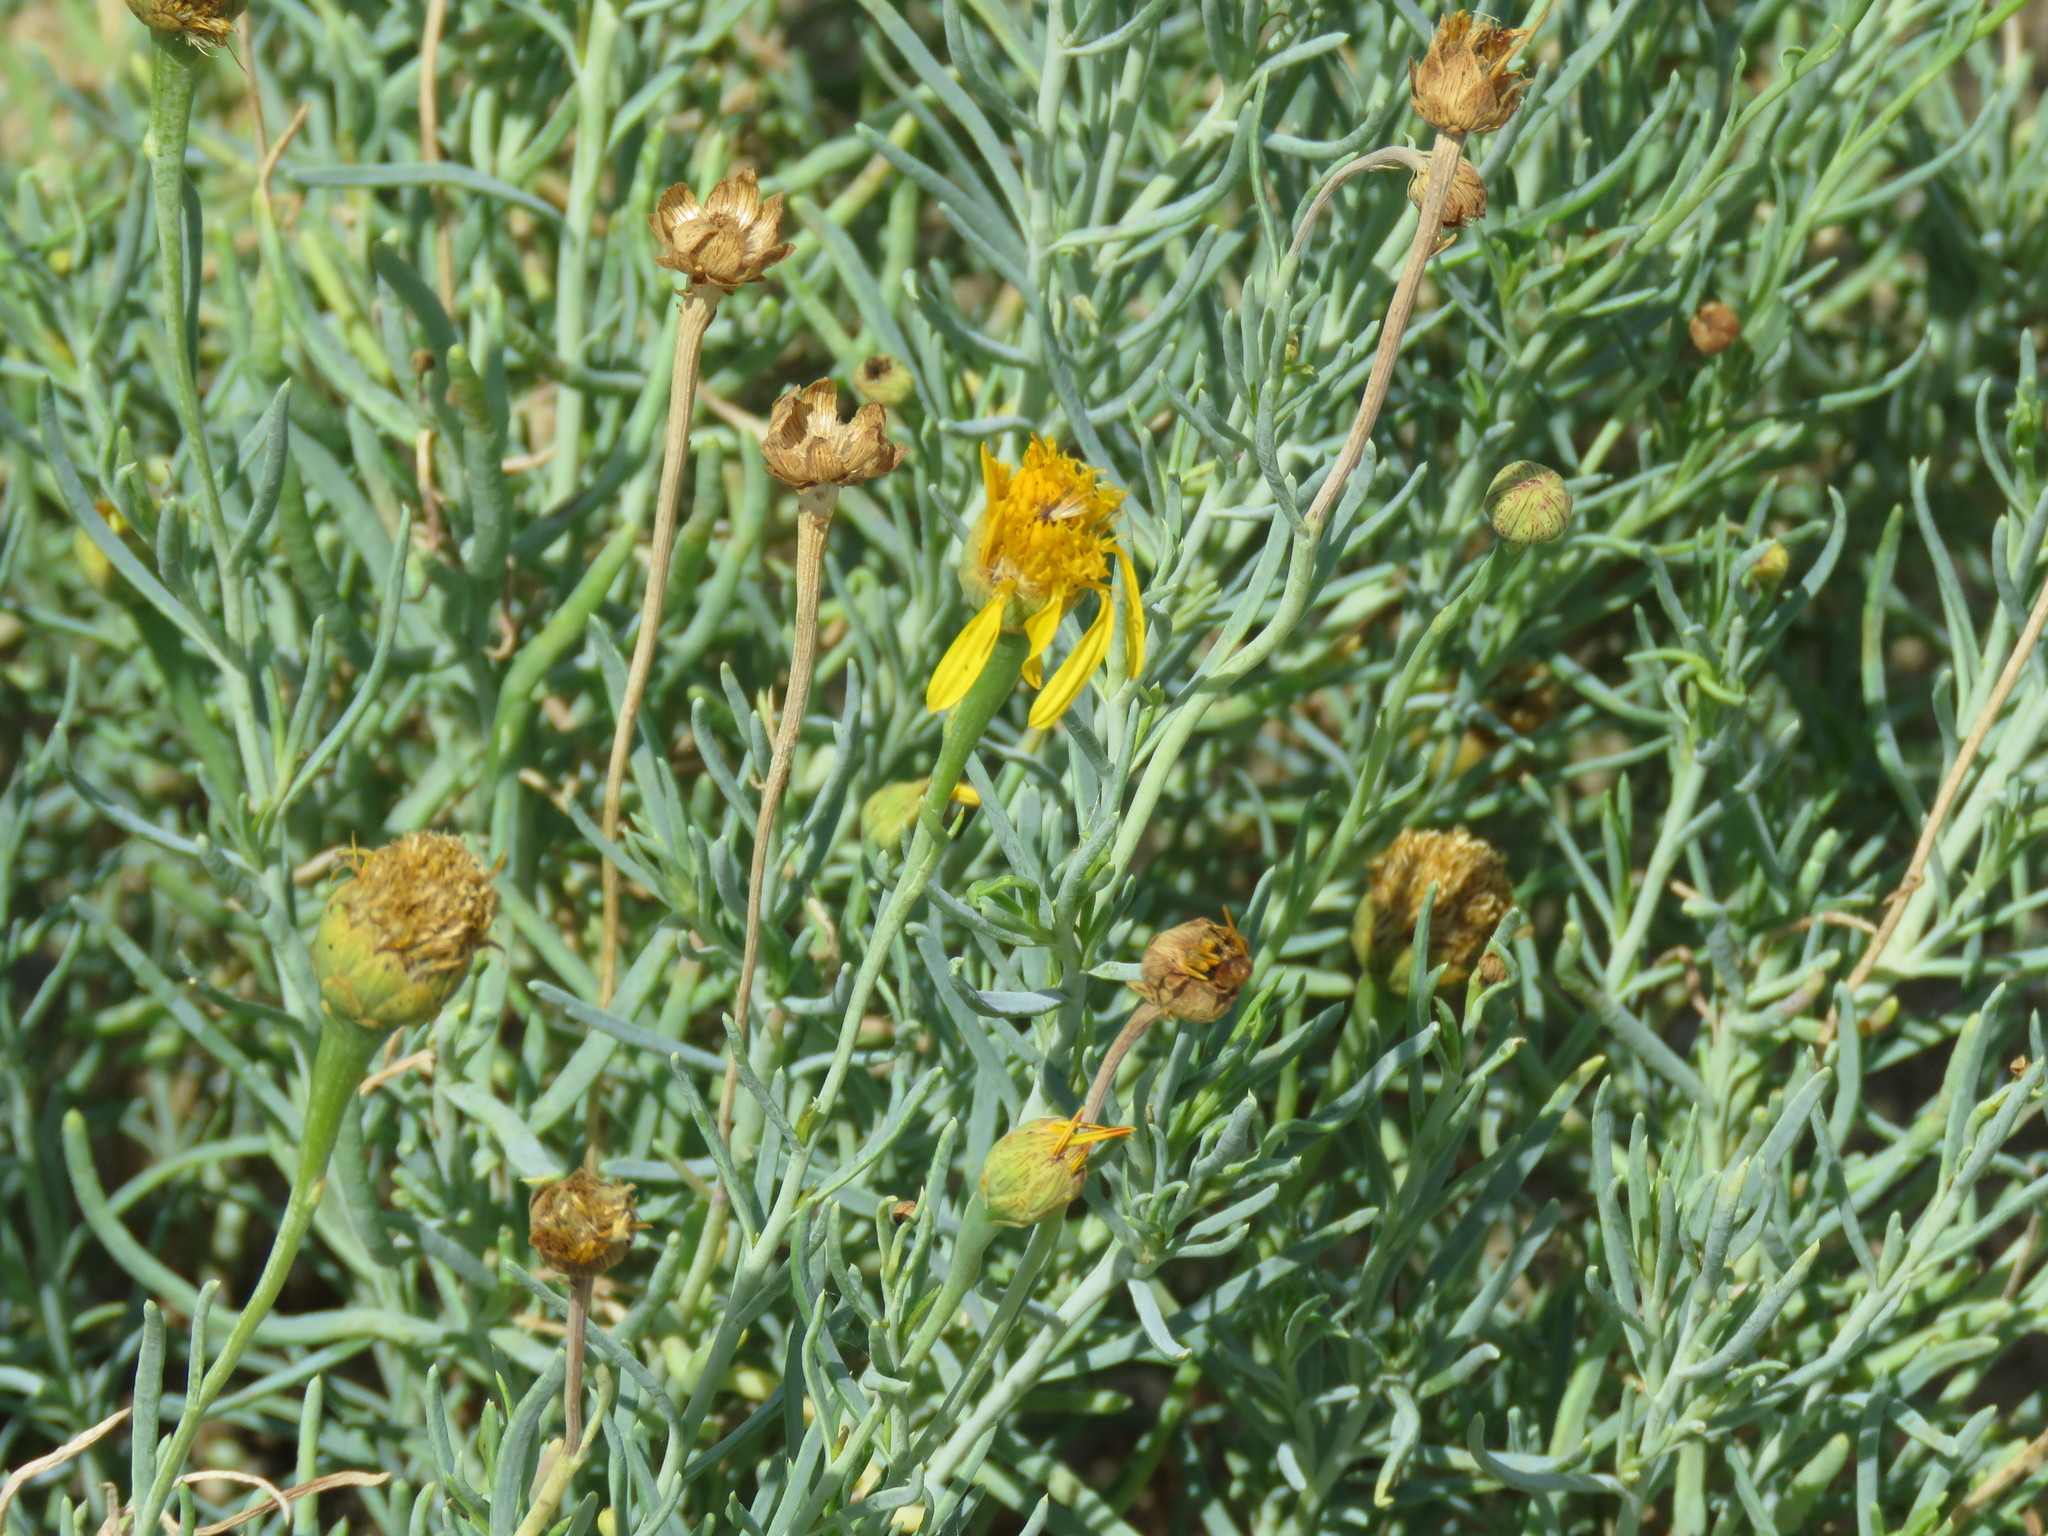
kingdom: Plantae
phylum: Tracheophyta
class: Magnoliopsida
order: Asterales
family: Asteraceae
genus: Clappia
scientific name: Clappia suaedifolia
